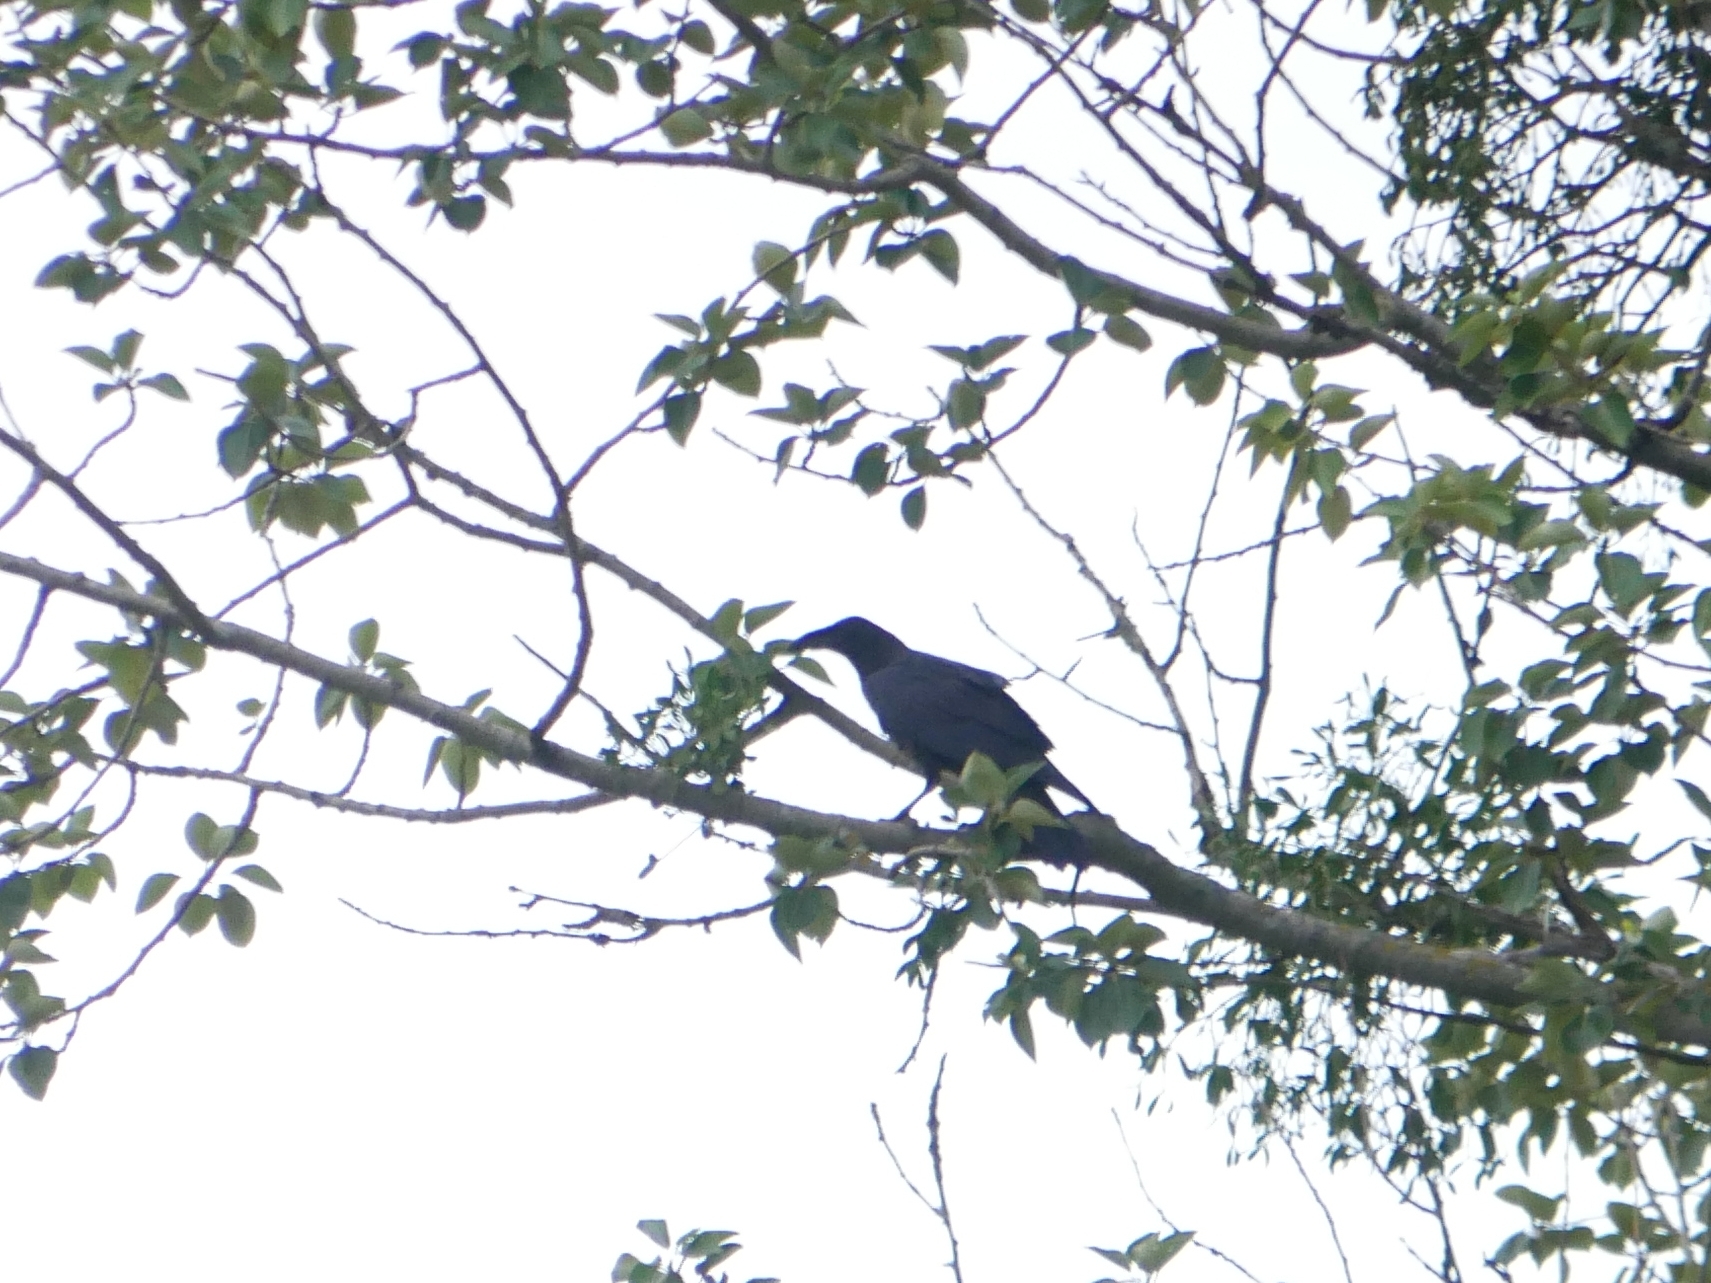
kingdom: Animalia
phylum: Chordata
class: Aves
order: Passeriformes
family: Corvidae
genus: Corvus
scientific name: Corvus corax
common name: Common raven
